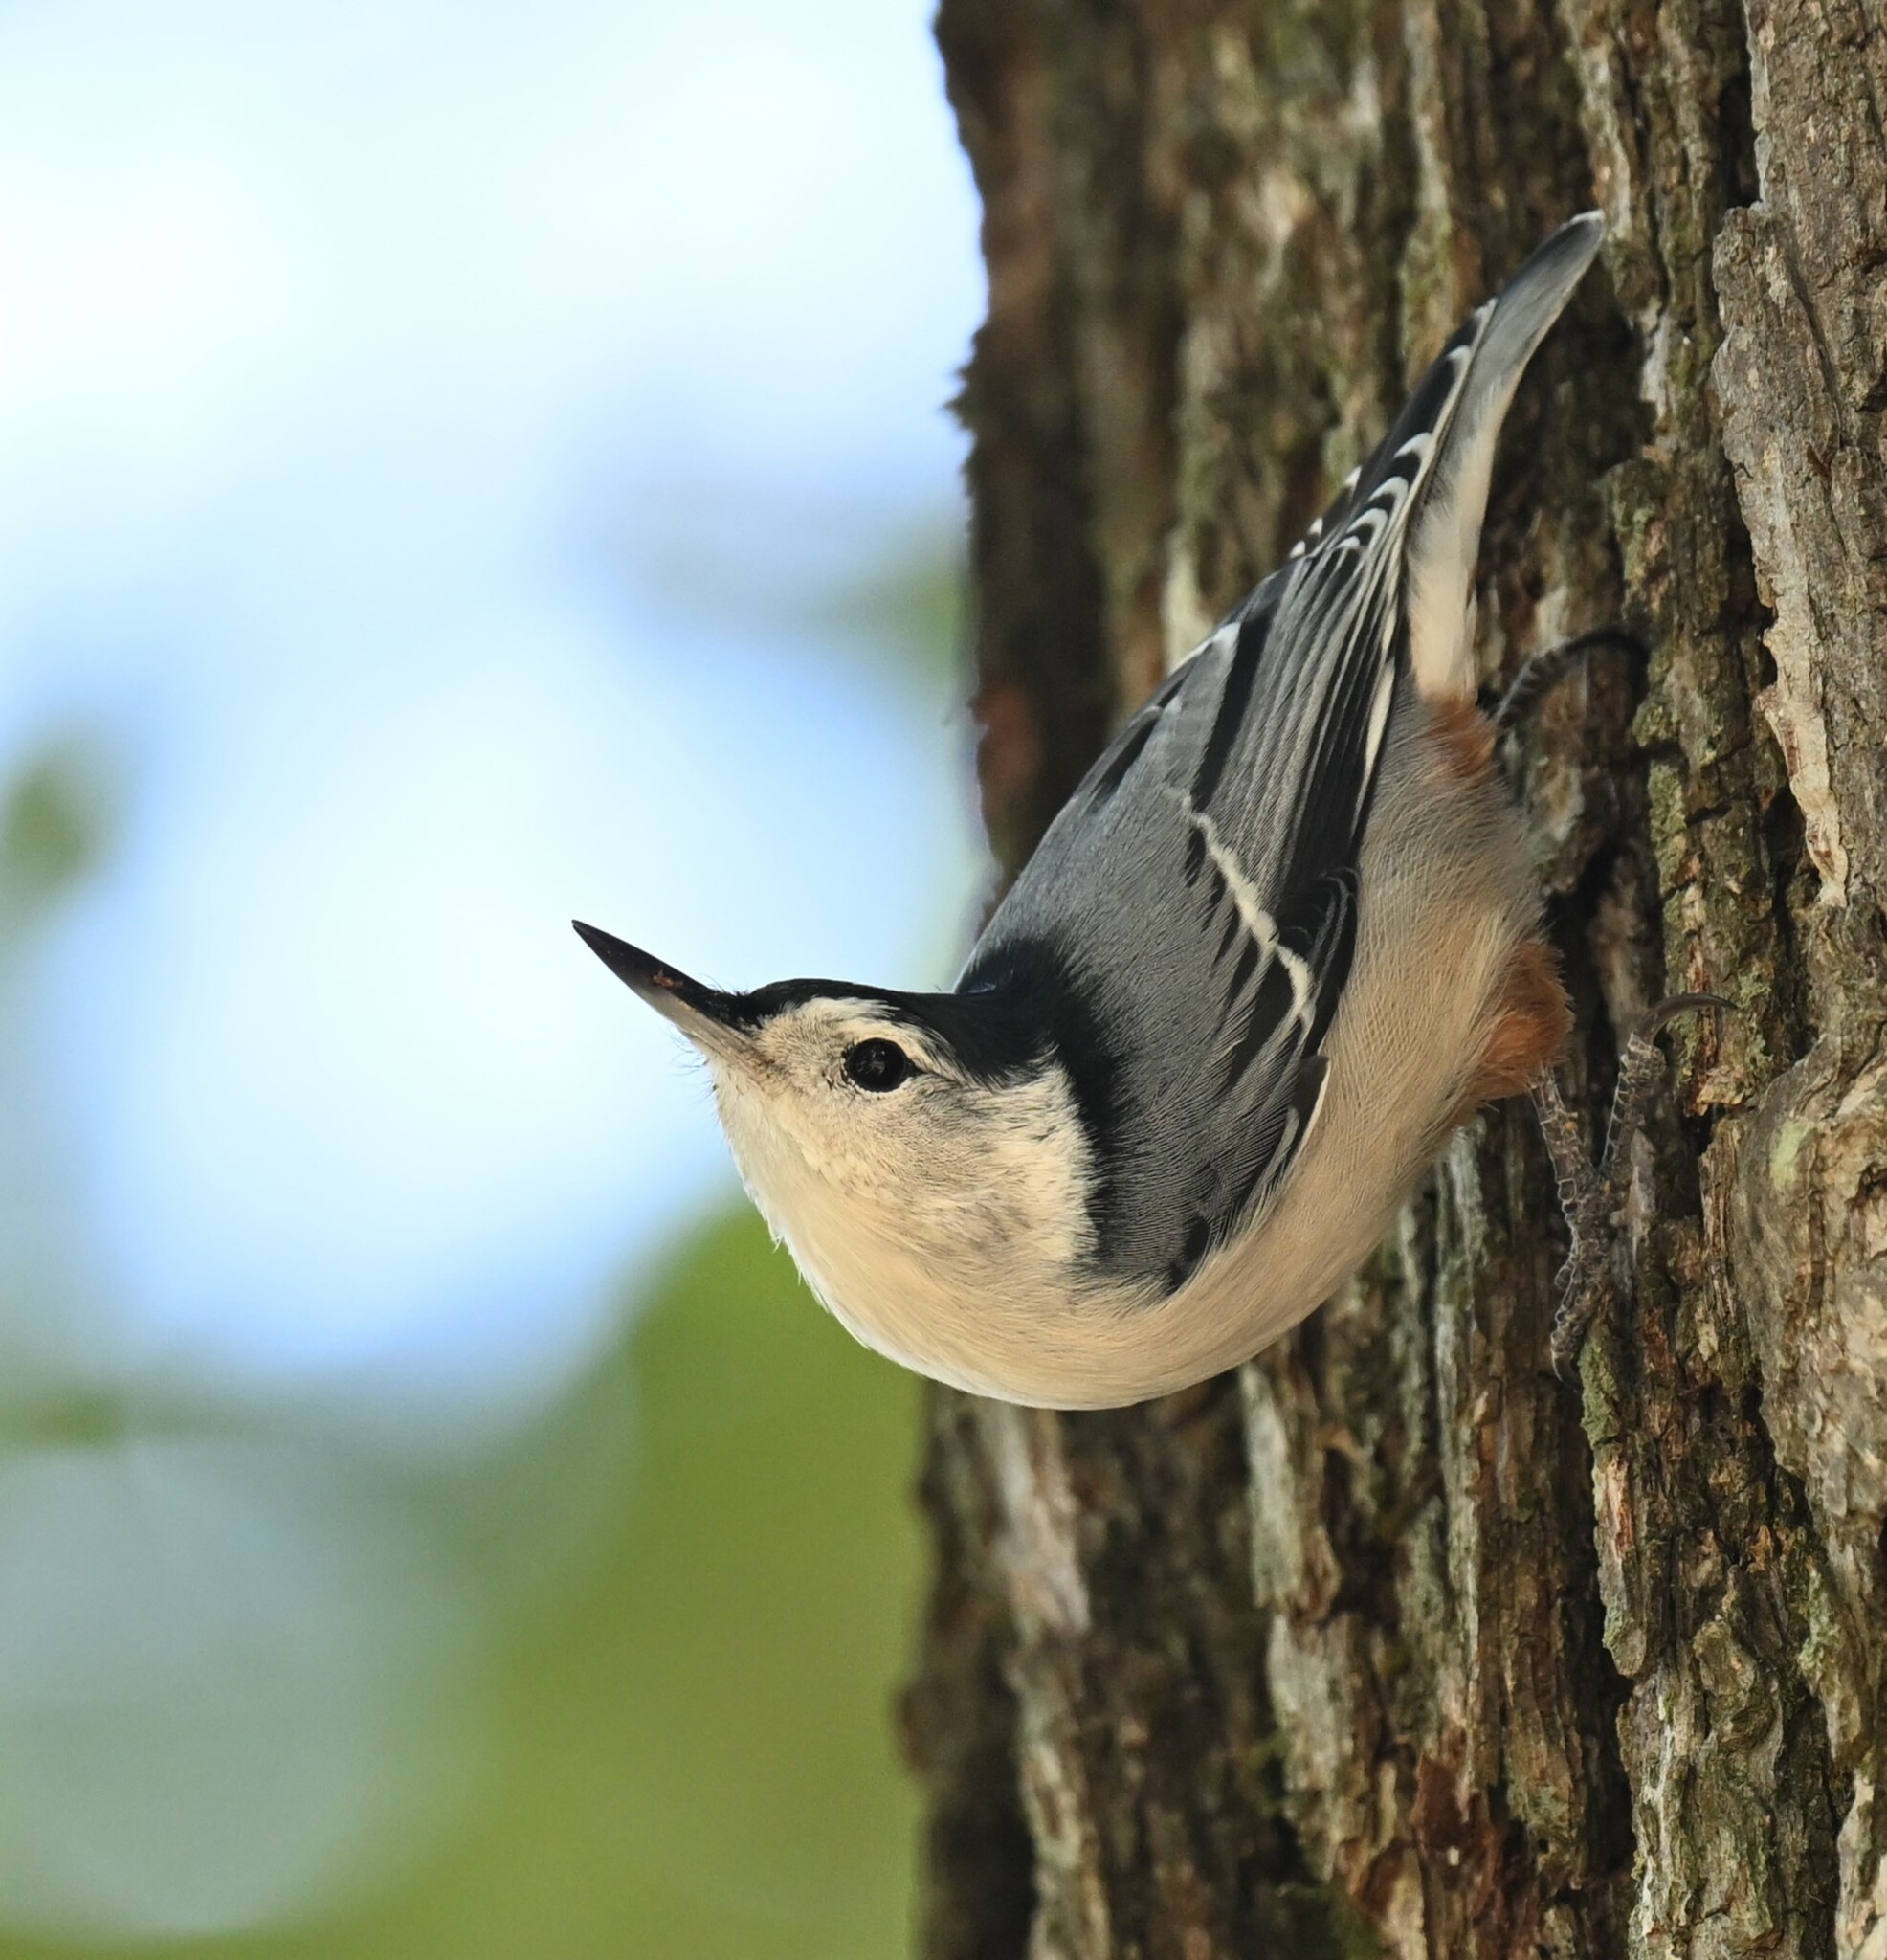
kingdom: Animalia
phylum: Chordata
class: Aves
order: Passeriformes
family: Sittidae
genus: Sitta
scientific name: Sitta carolinensis
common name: White-breasted nuthatch
